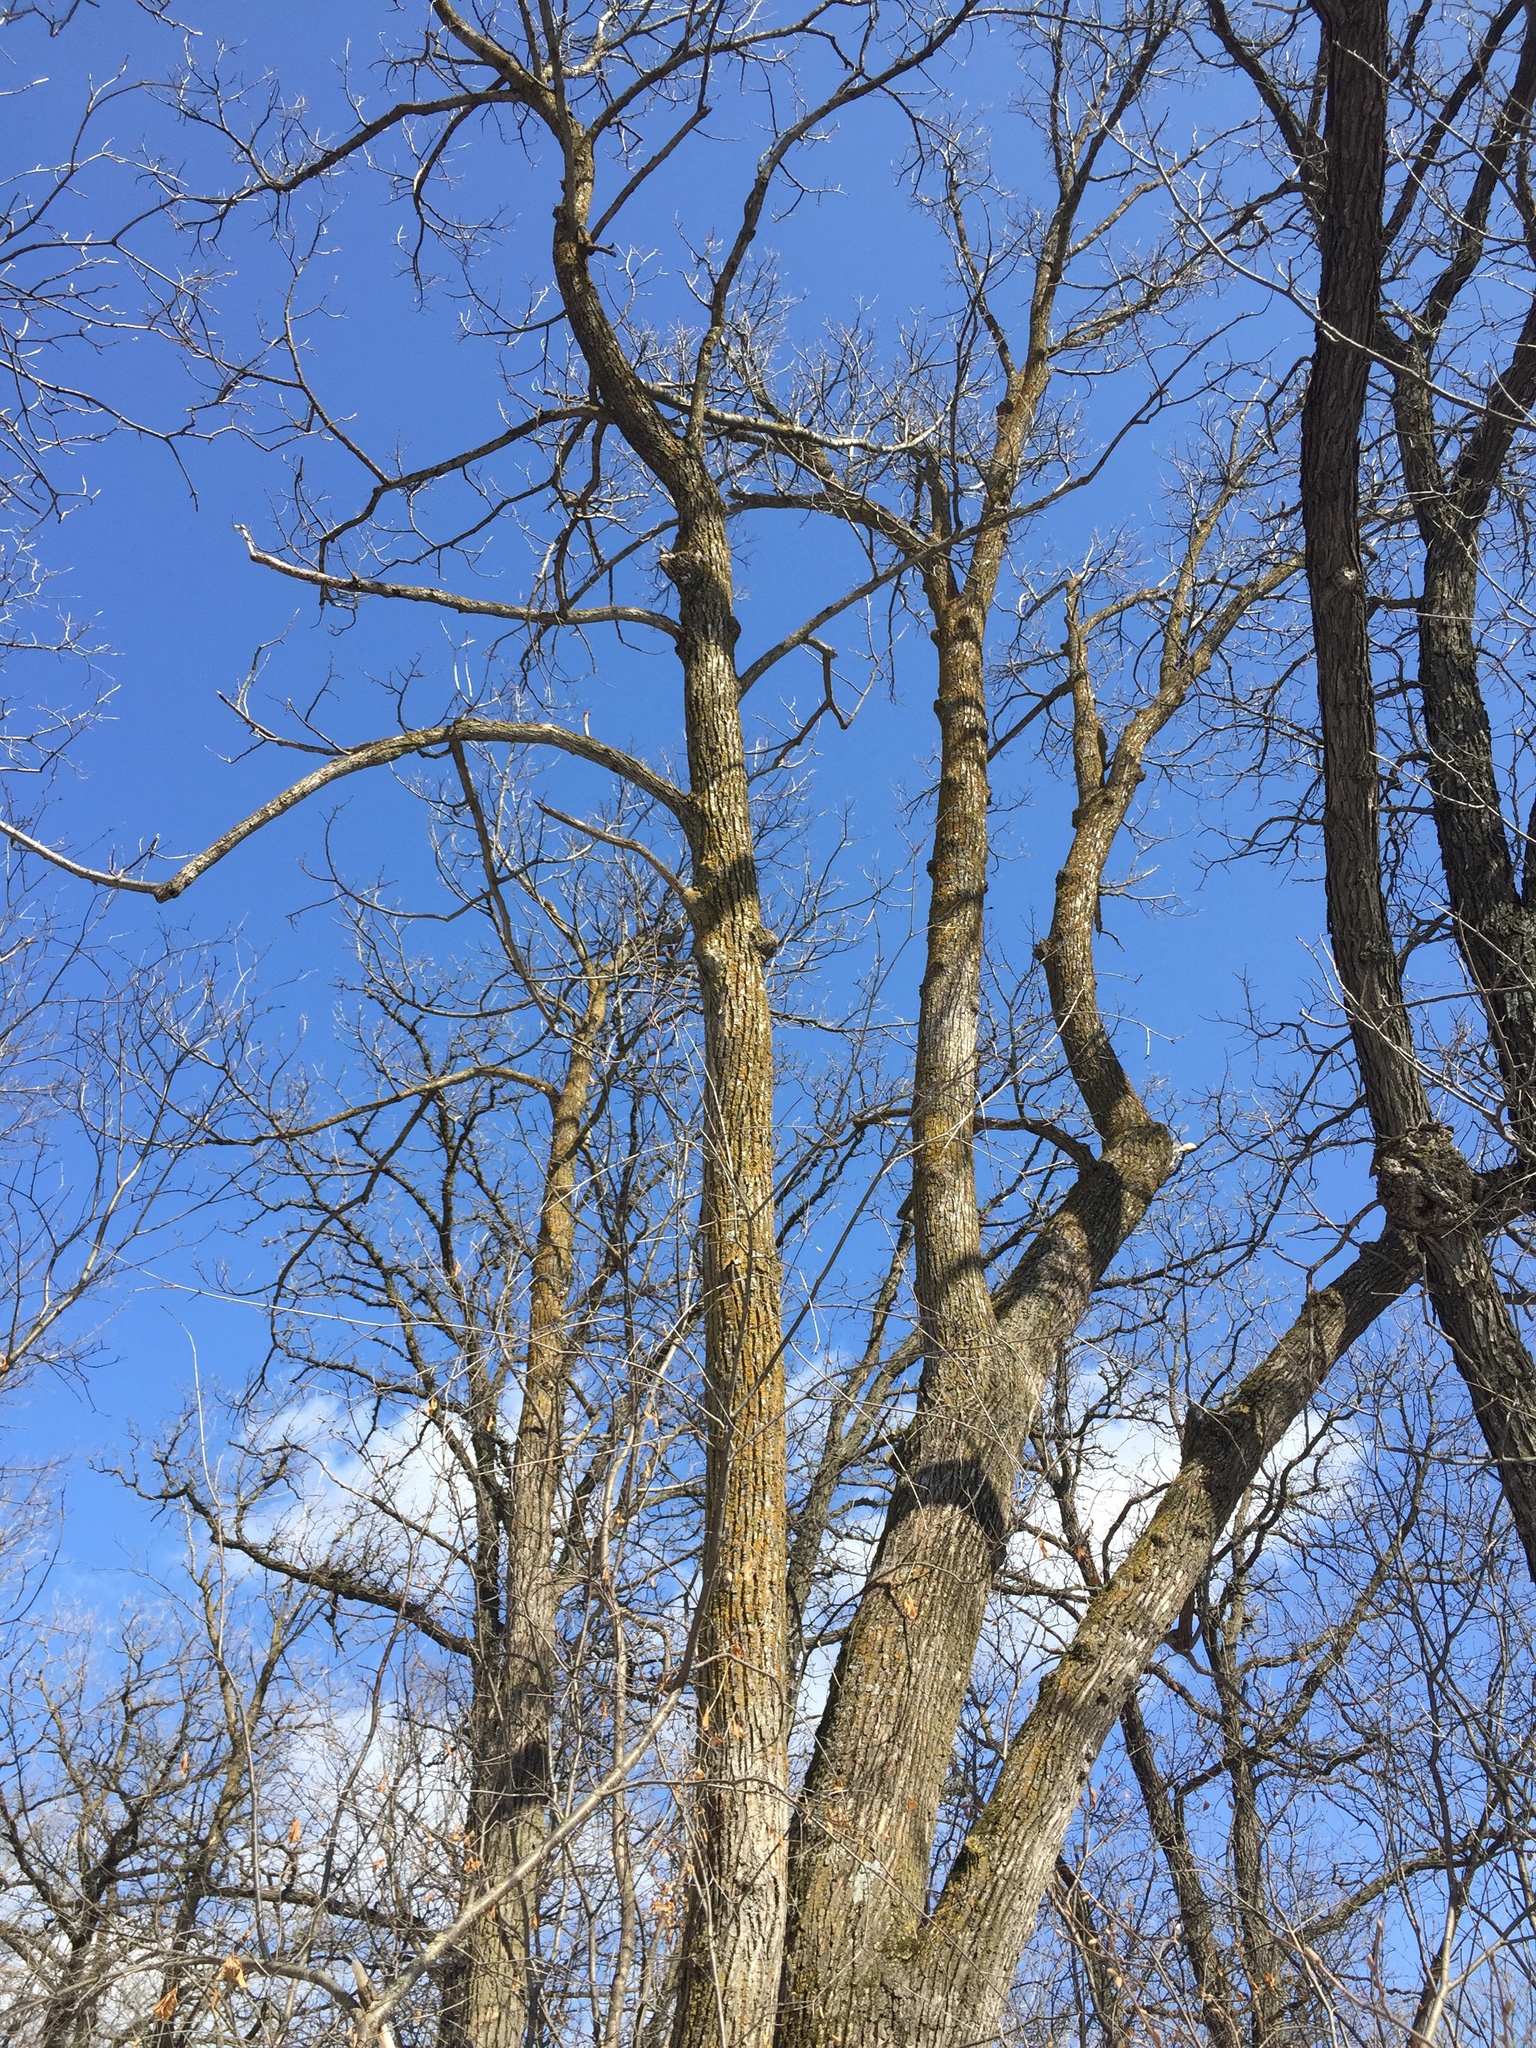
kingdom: Plantae
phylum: Tracheophyta
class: Magnoliopsida
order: Malvales
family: Malvaceae
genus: Tilia
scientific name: Tilia americana
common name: Basswood
